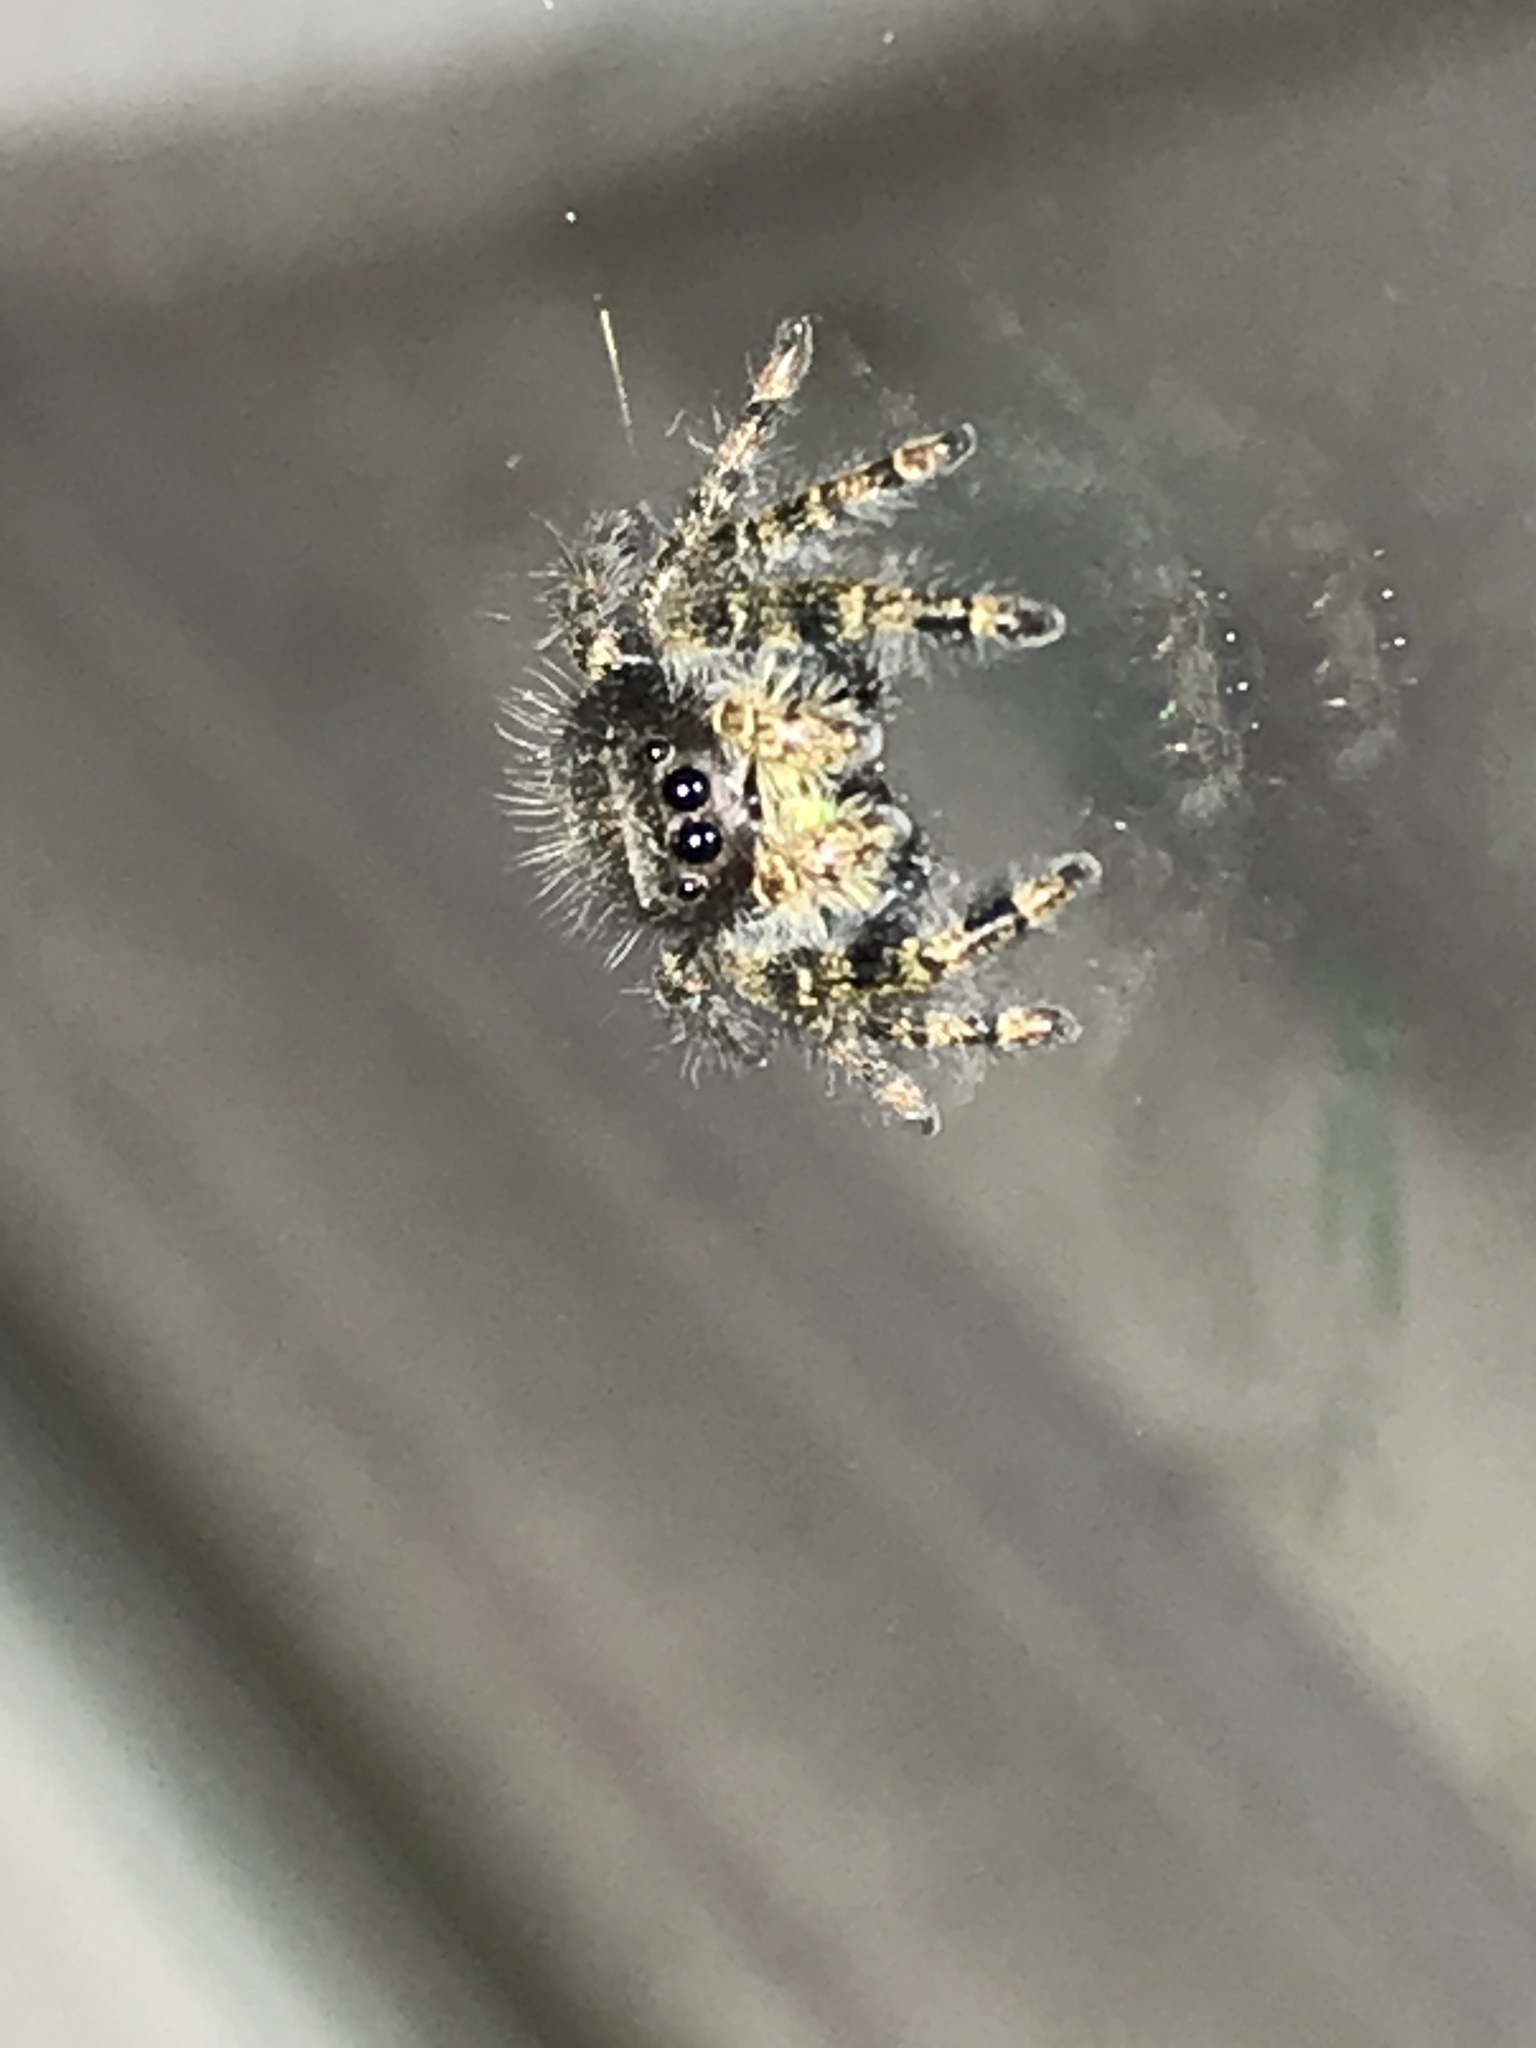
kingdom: Animalia
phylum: Arthropoda
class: Arachnida
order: Araneae
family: Salticidae
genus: Phidippus
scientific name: Phidippus audax
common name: Bold jumper
